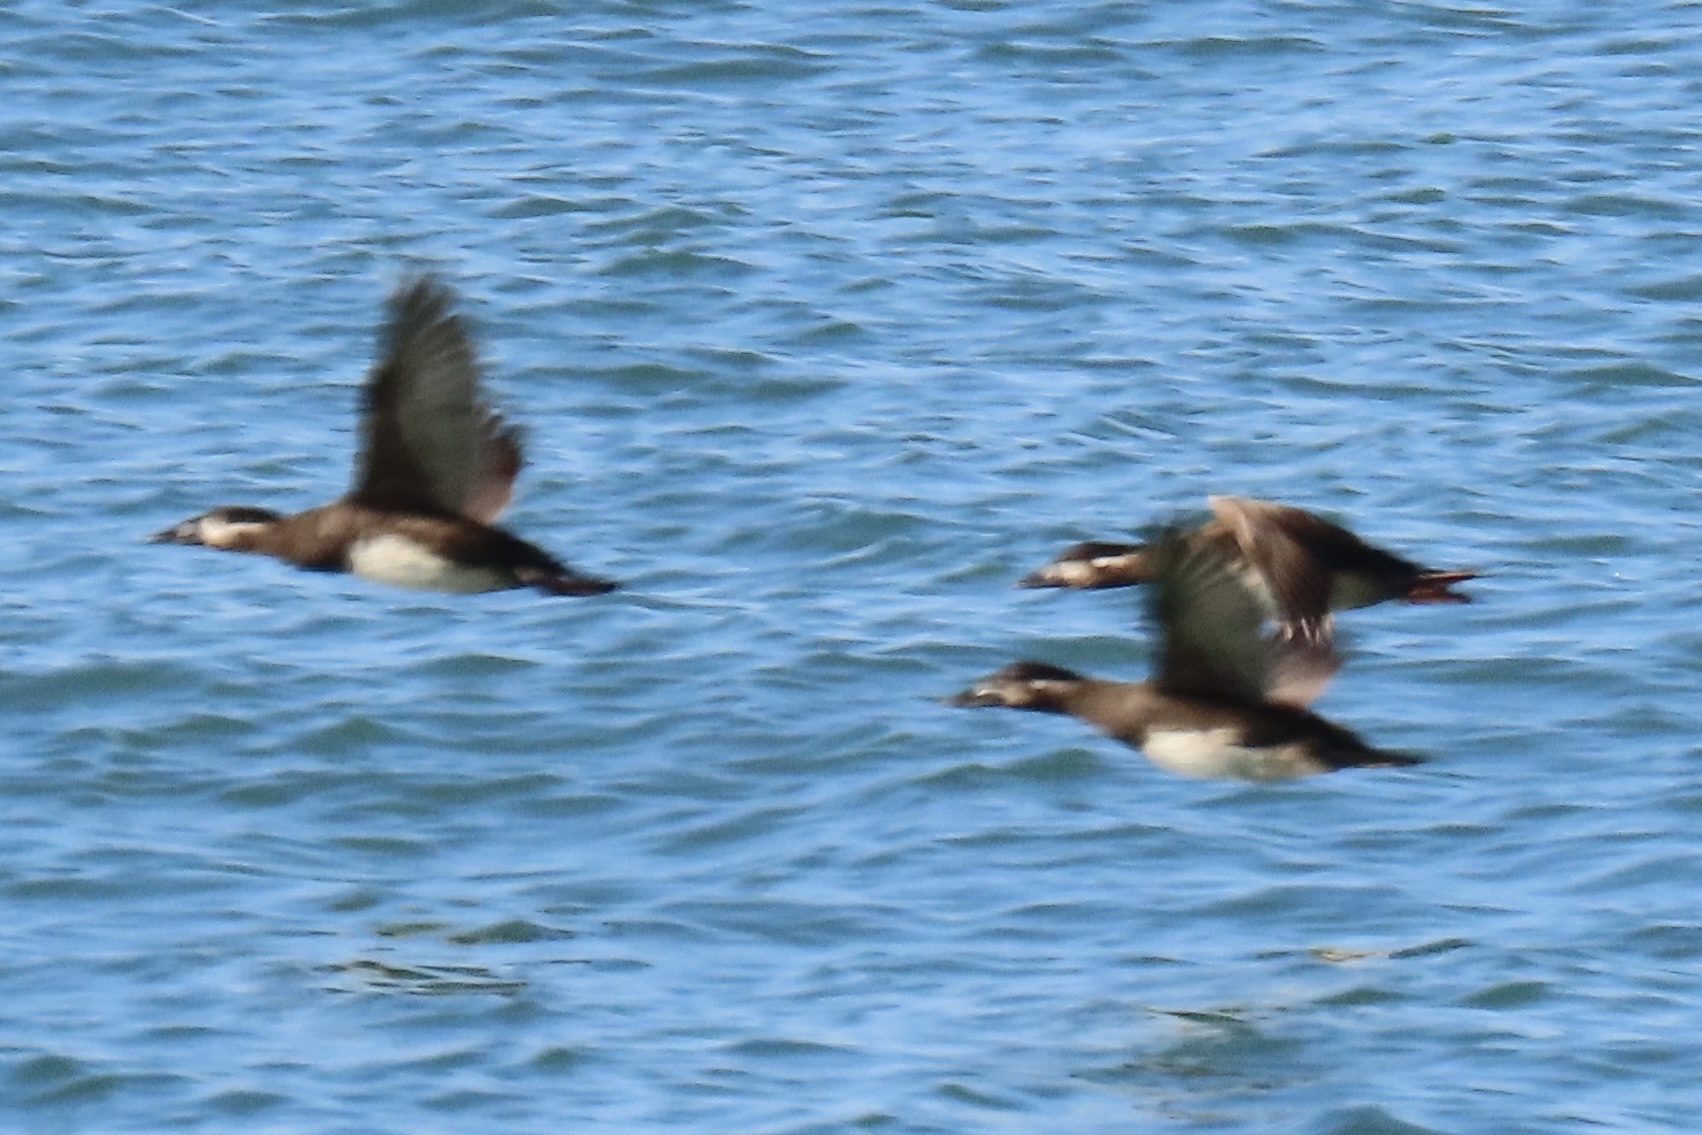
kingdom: Animalia
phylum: Chordata
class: Aves
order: Anseriformes
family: Anatidae
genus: Melanitta
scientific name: Melanitta perspicillata
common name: Surf scoter
